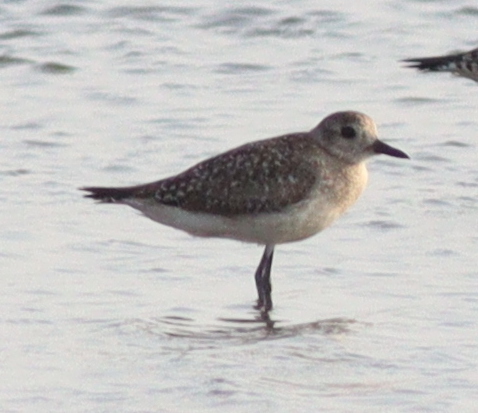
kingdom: Animalia
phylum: Chordata
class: Aves
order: Charadriiformes
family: Charadriidae
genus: Pluvialis
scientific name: Pluvialis squatarola
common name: Grey plover
